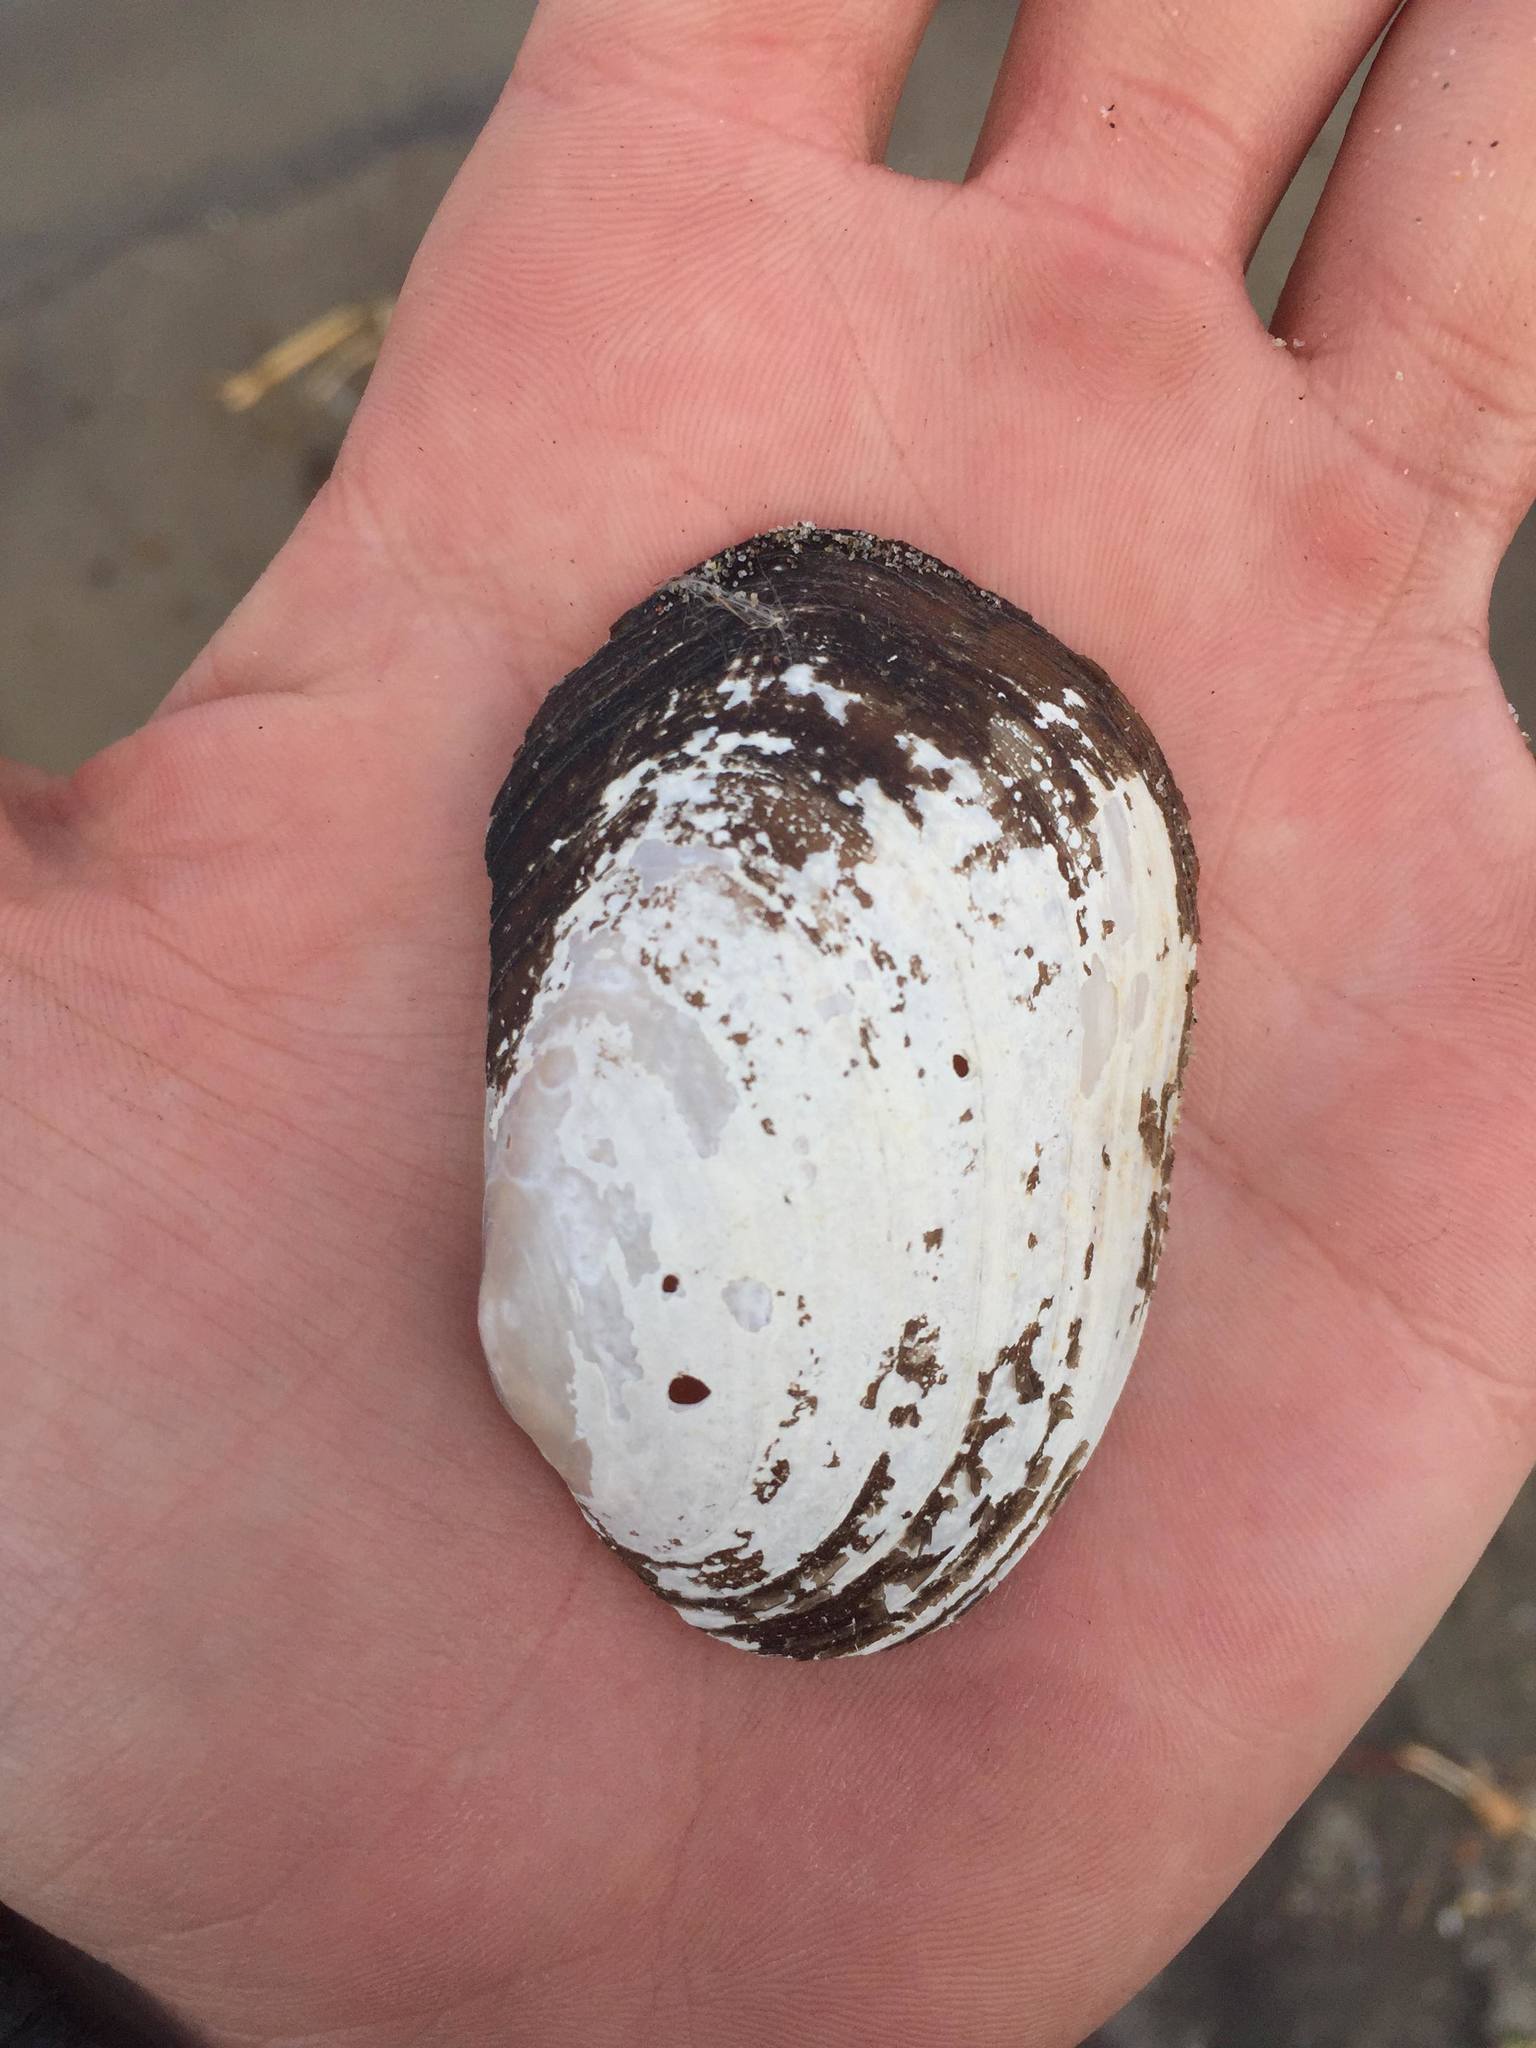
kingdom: Animalia
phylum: Mollusca
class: Bivalvia
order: Unionida
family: Unionidae
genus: Lampsilis
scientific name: Lampsilis siliquoidea
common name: Fatmucket
